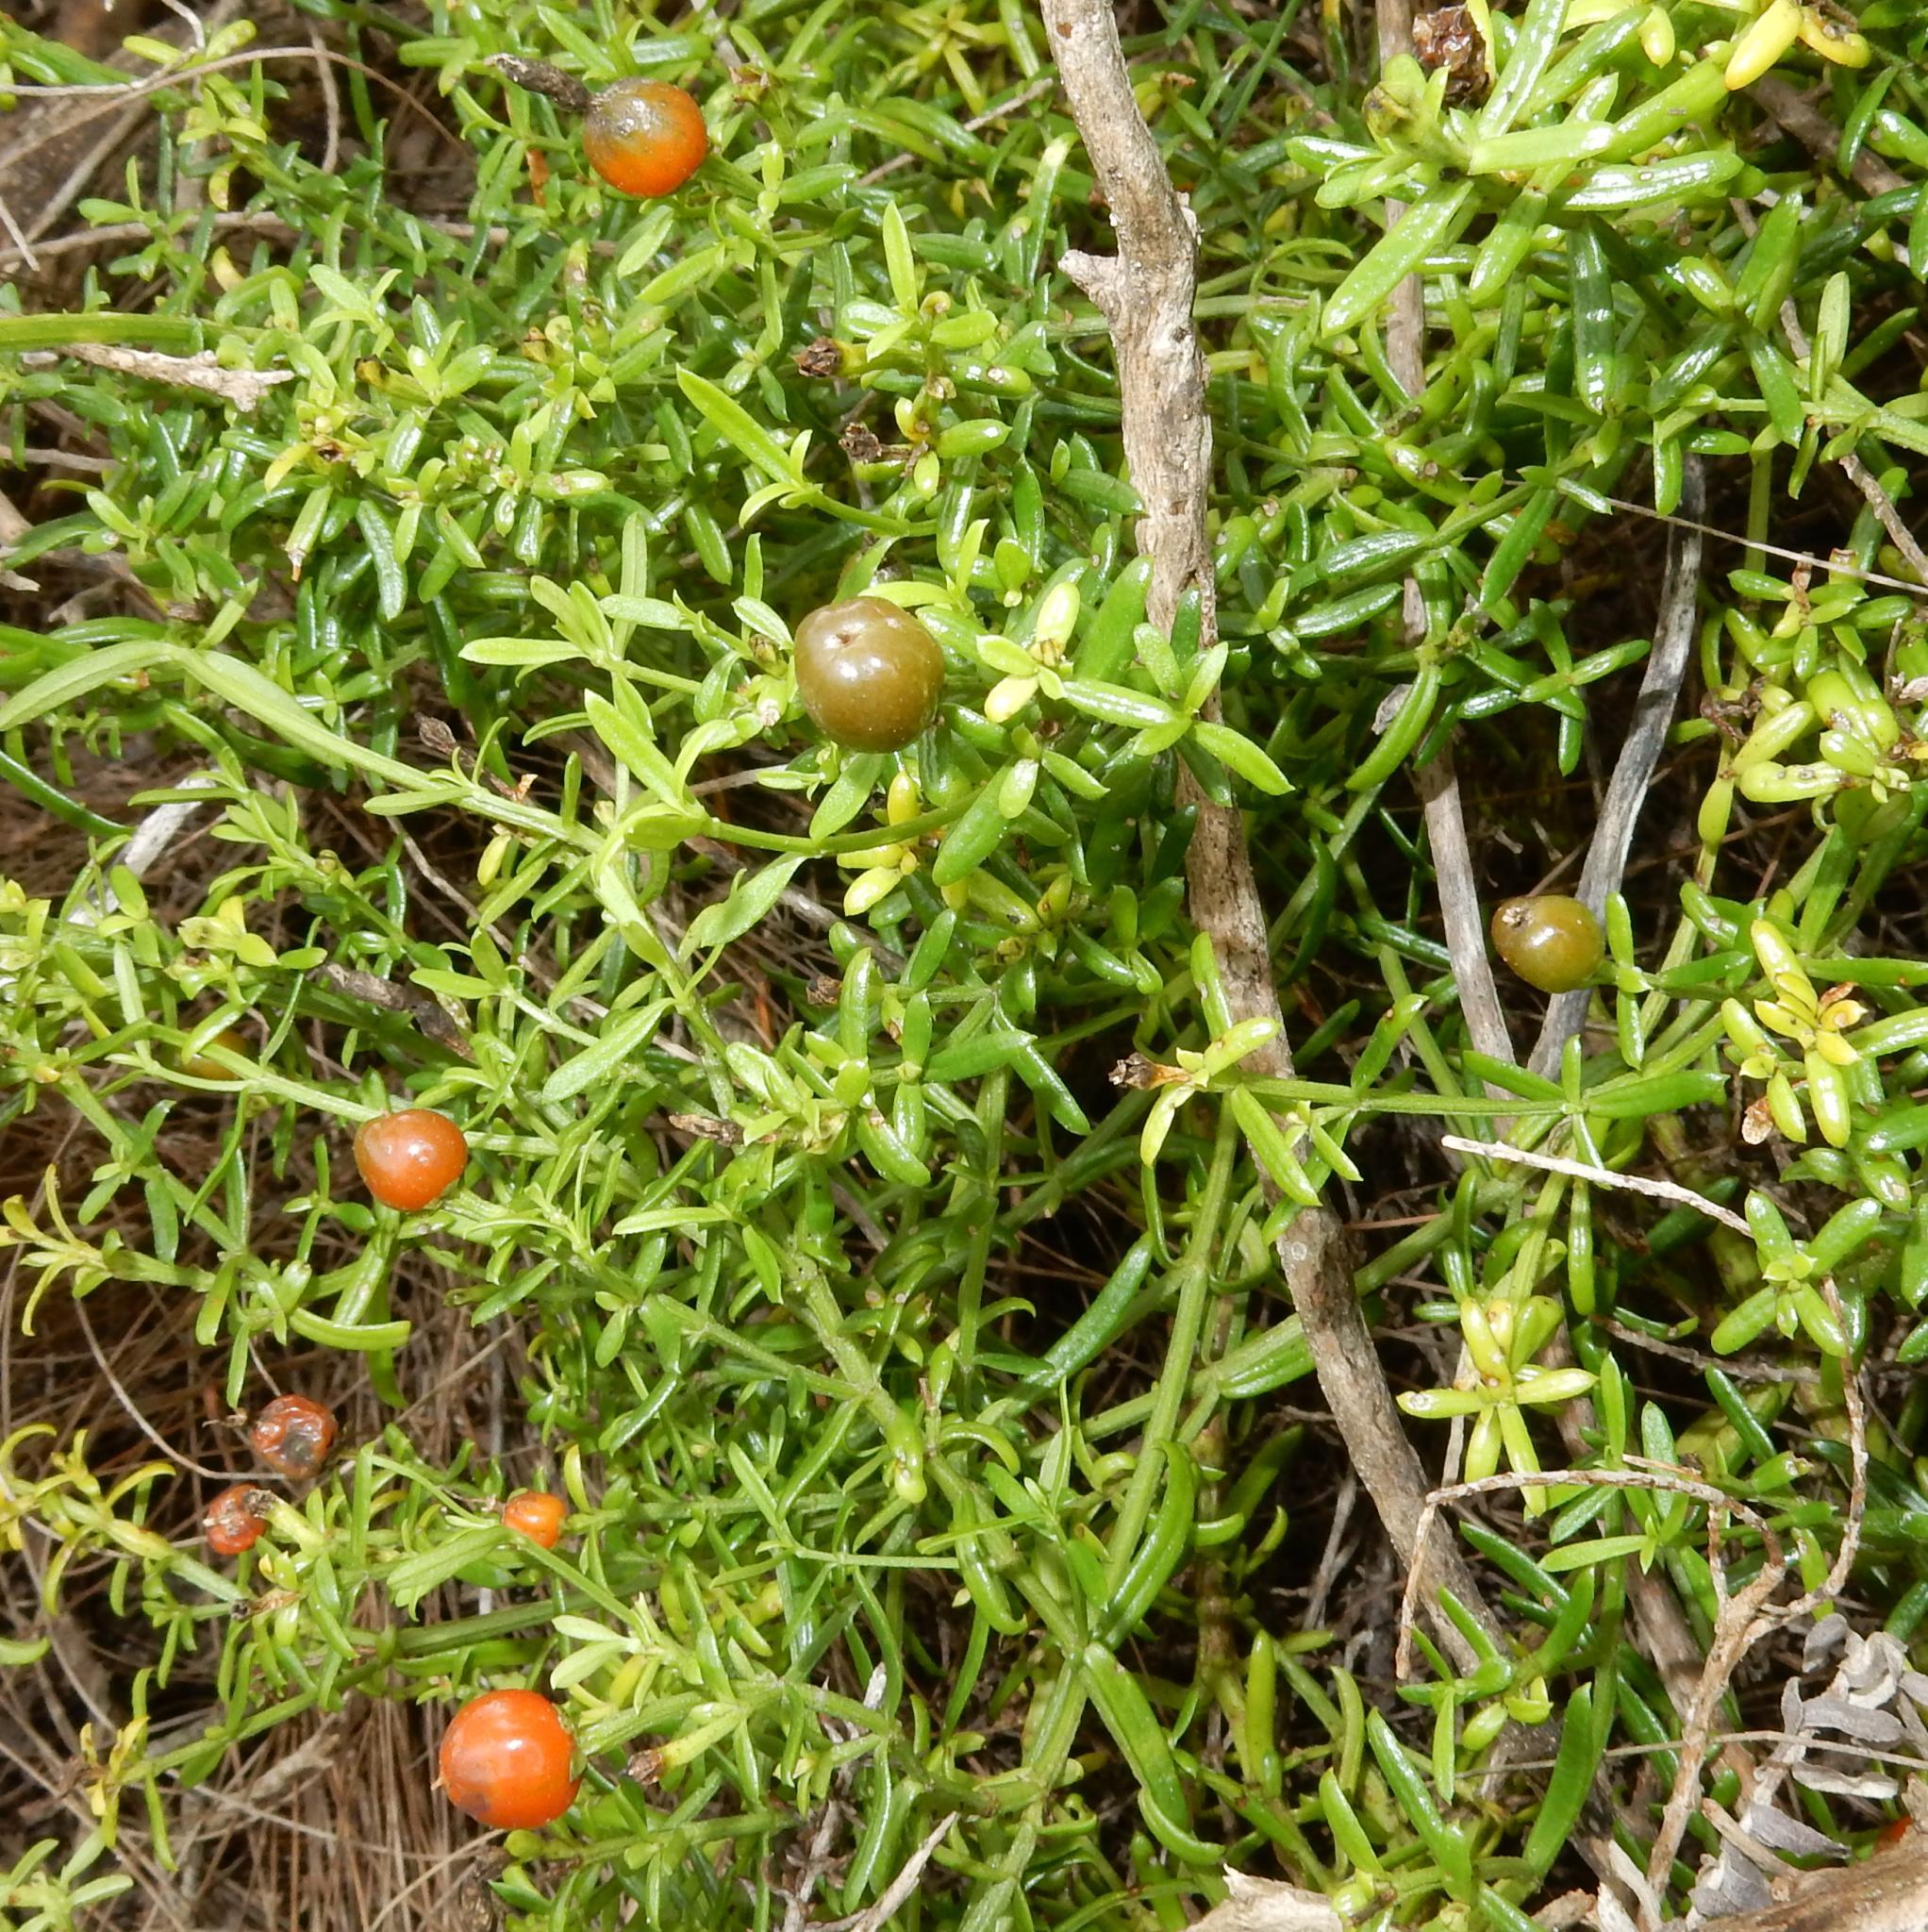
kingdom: Plantae
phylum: Tracheophyta
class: Magnoliopsida
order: Gentianales
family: Gentianaceae
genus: Chironia
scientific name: Chironia baccifera
